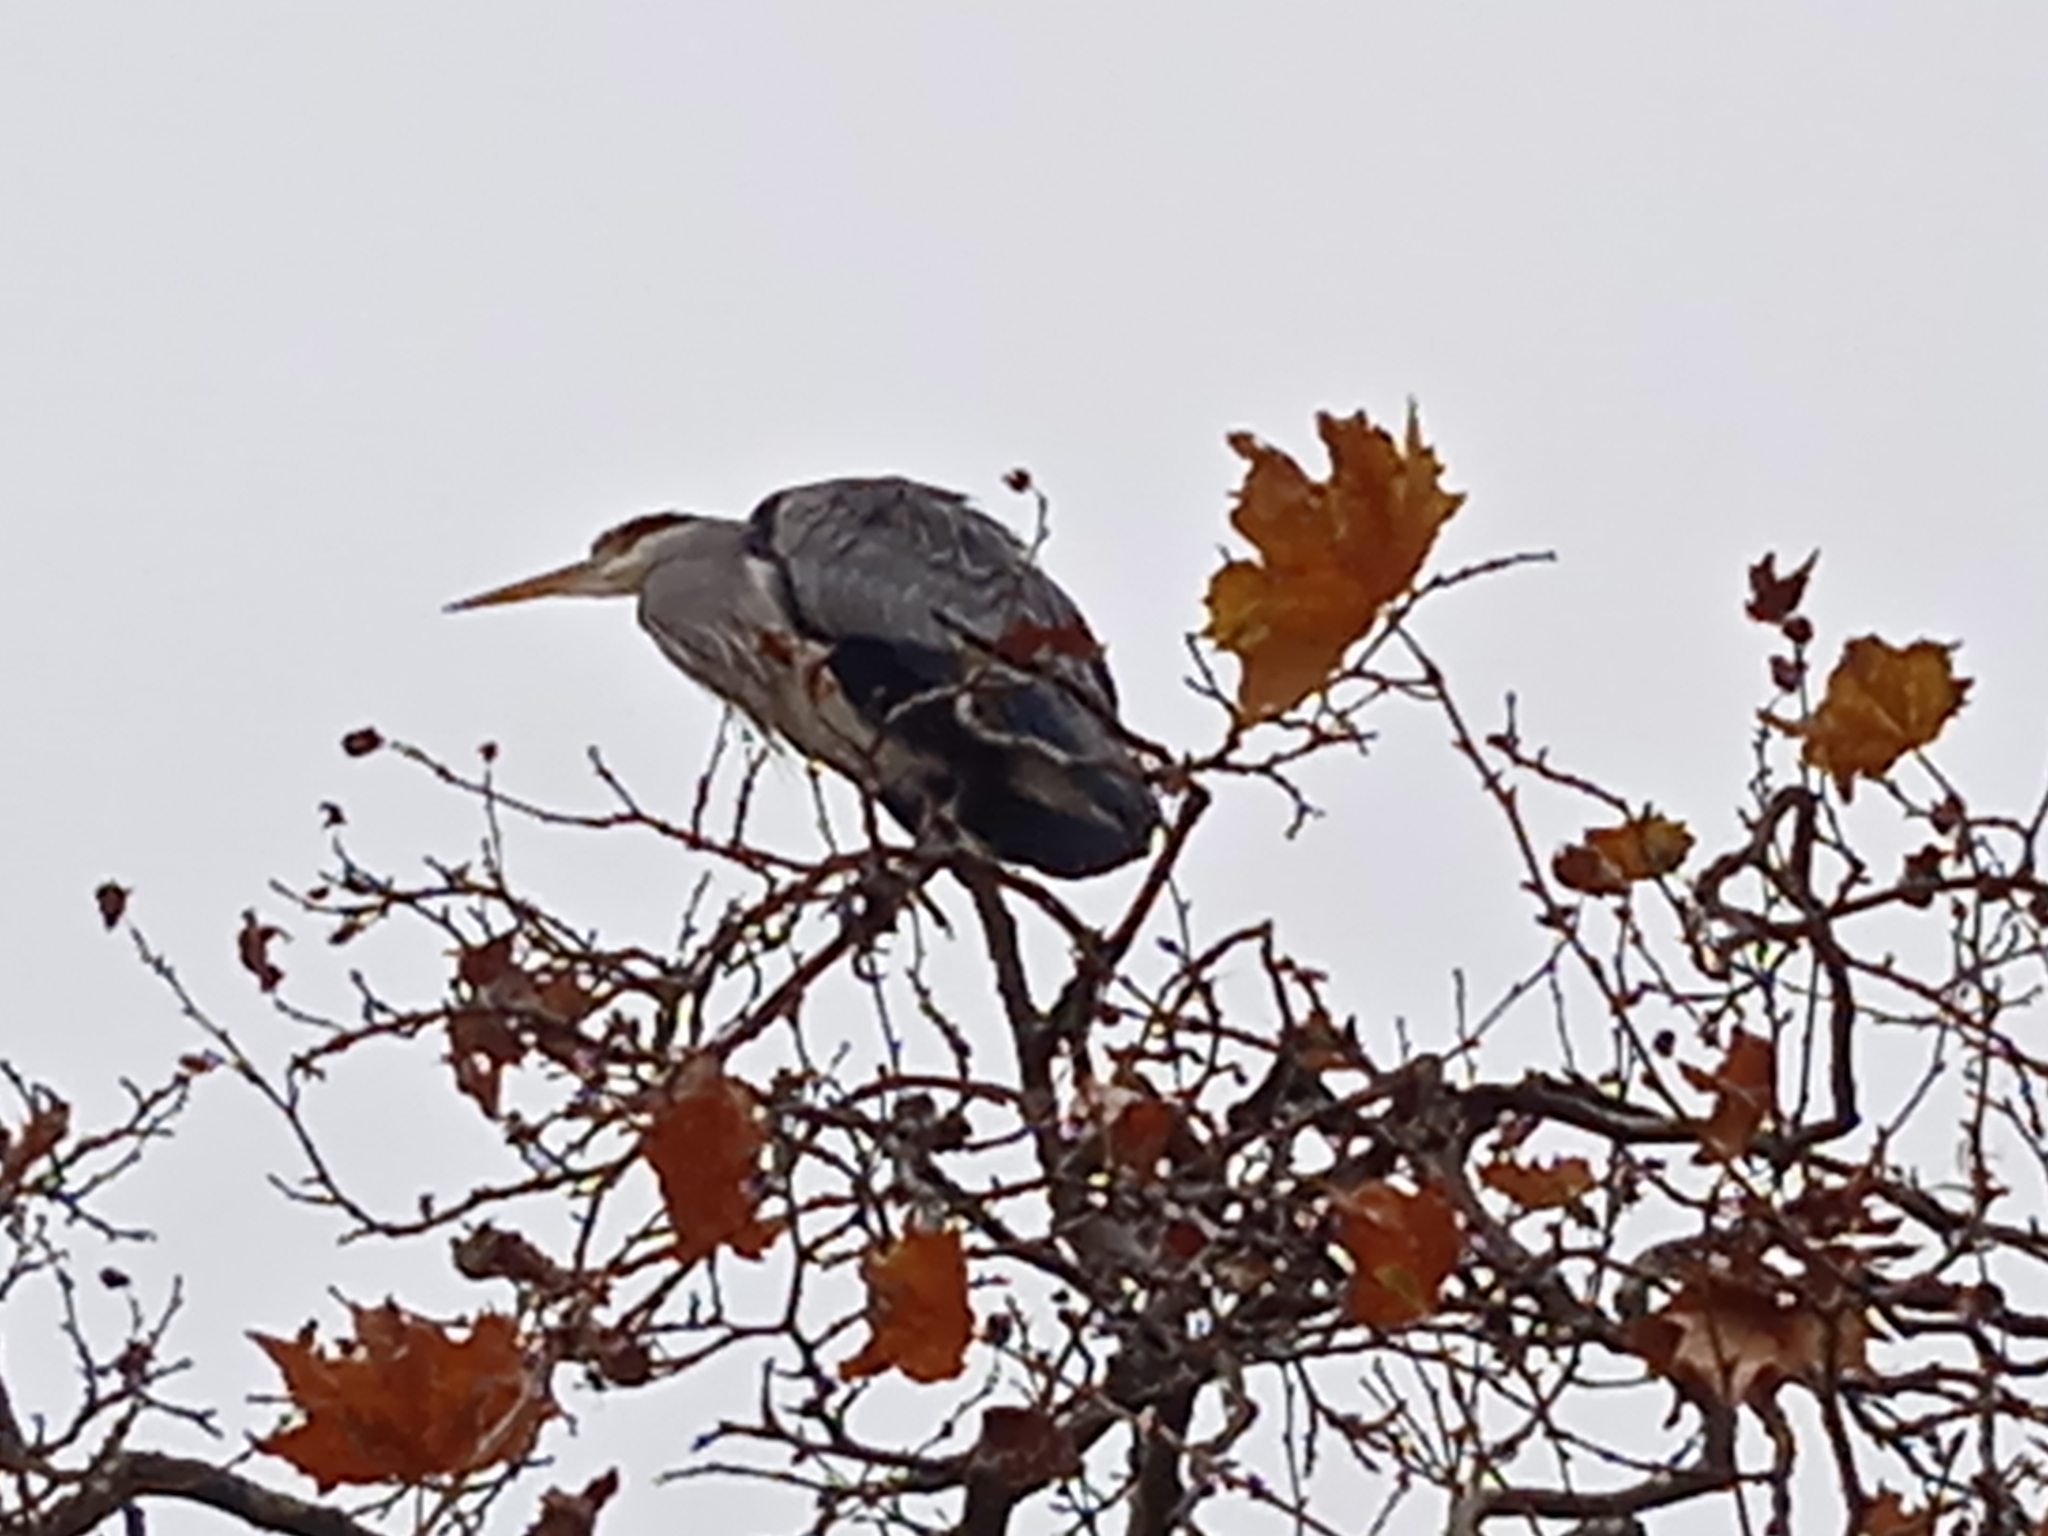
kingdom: Animalia
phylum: Chordata
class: Aves
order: Pelecaniformes
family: Ardeidae
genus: Ardea
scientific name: Ardea cinerea
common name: Grey heron
